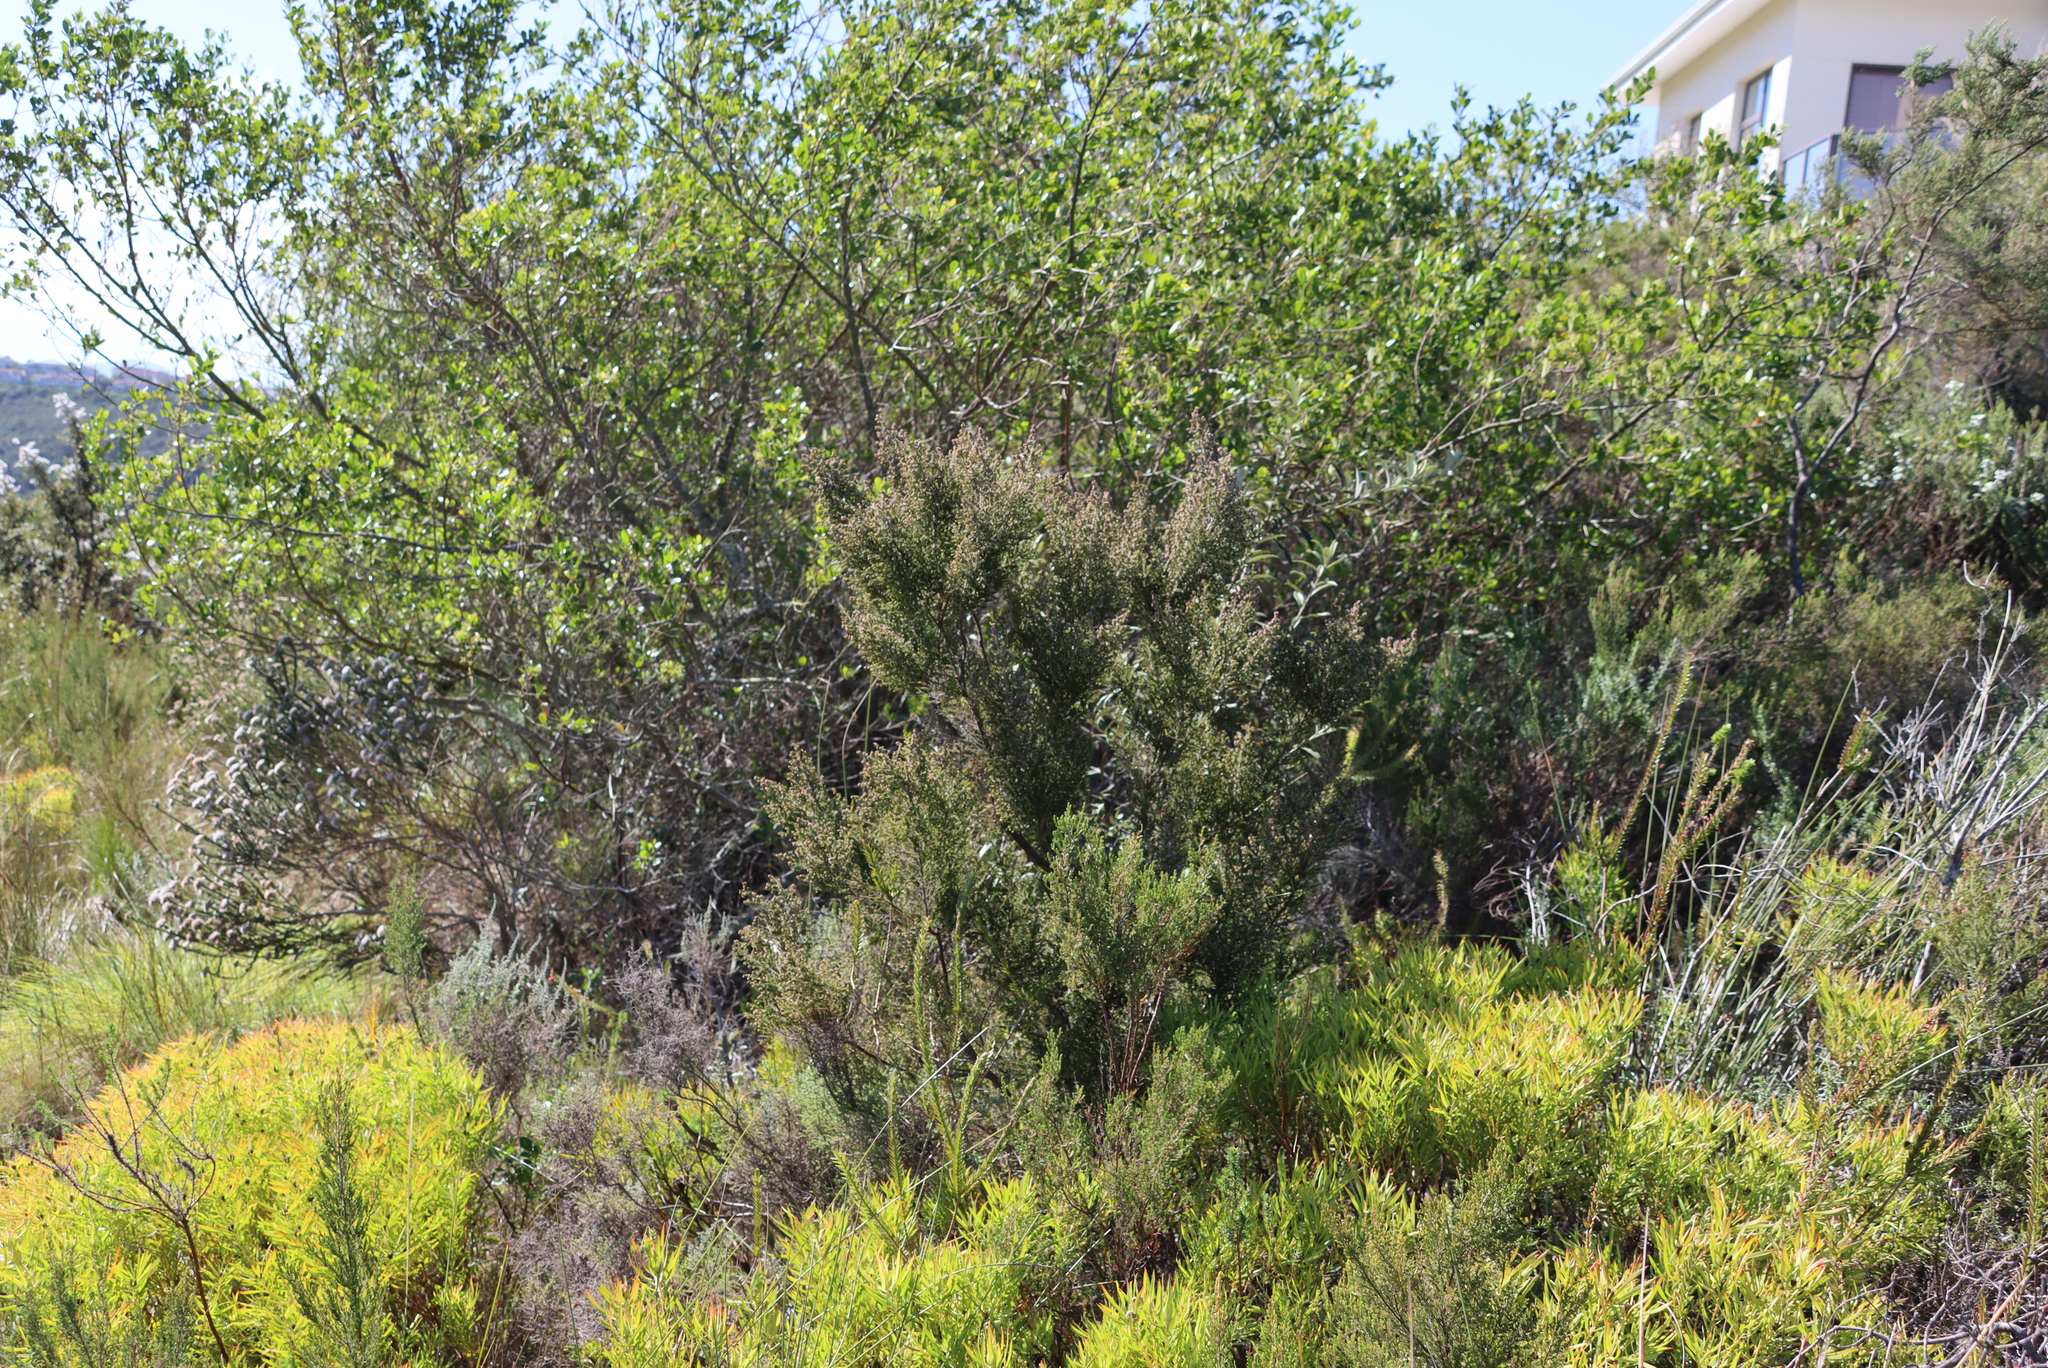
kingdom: Plantae
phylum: Tracheophyta
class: Magnoliopsida
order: Ericales
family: Ericaceae
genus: Erica
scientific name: Erica peltata
